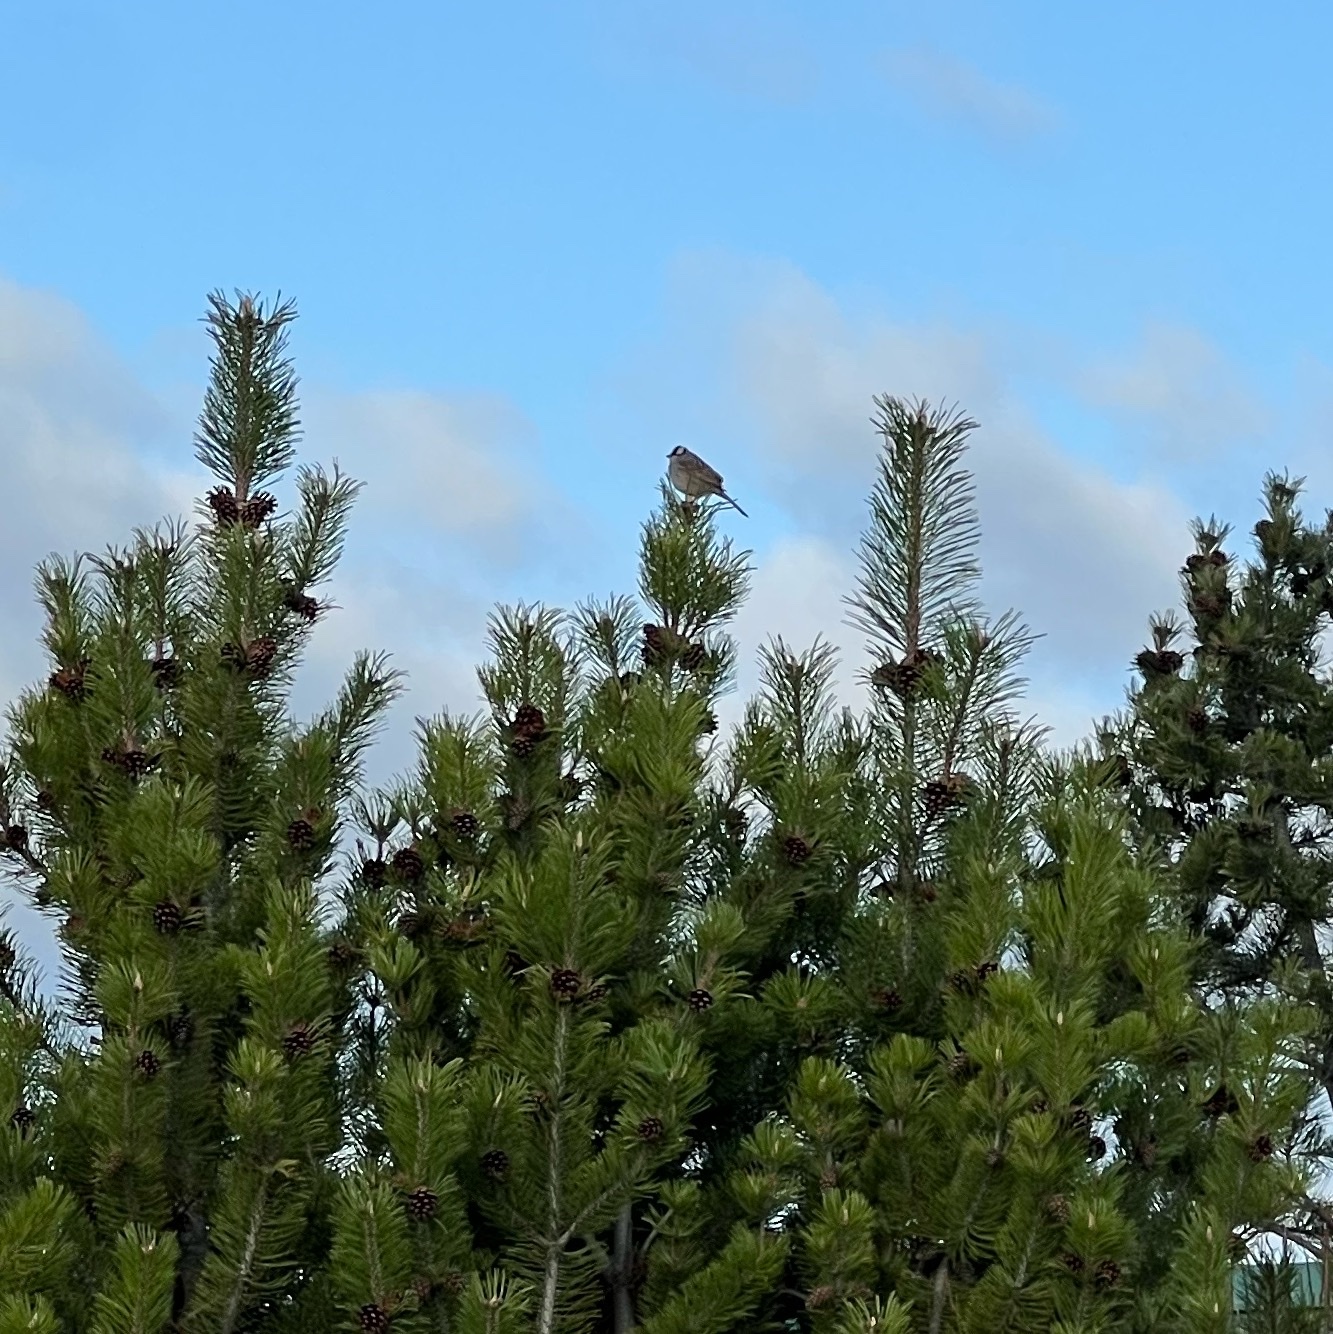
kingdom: Animalia
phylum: Chordata
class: Aves
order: Passeriformes
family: Passerellidae
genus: Zonotrichia
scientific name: Zonotrichia leucophrys
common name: White-crowned sparrow
